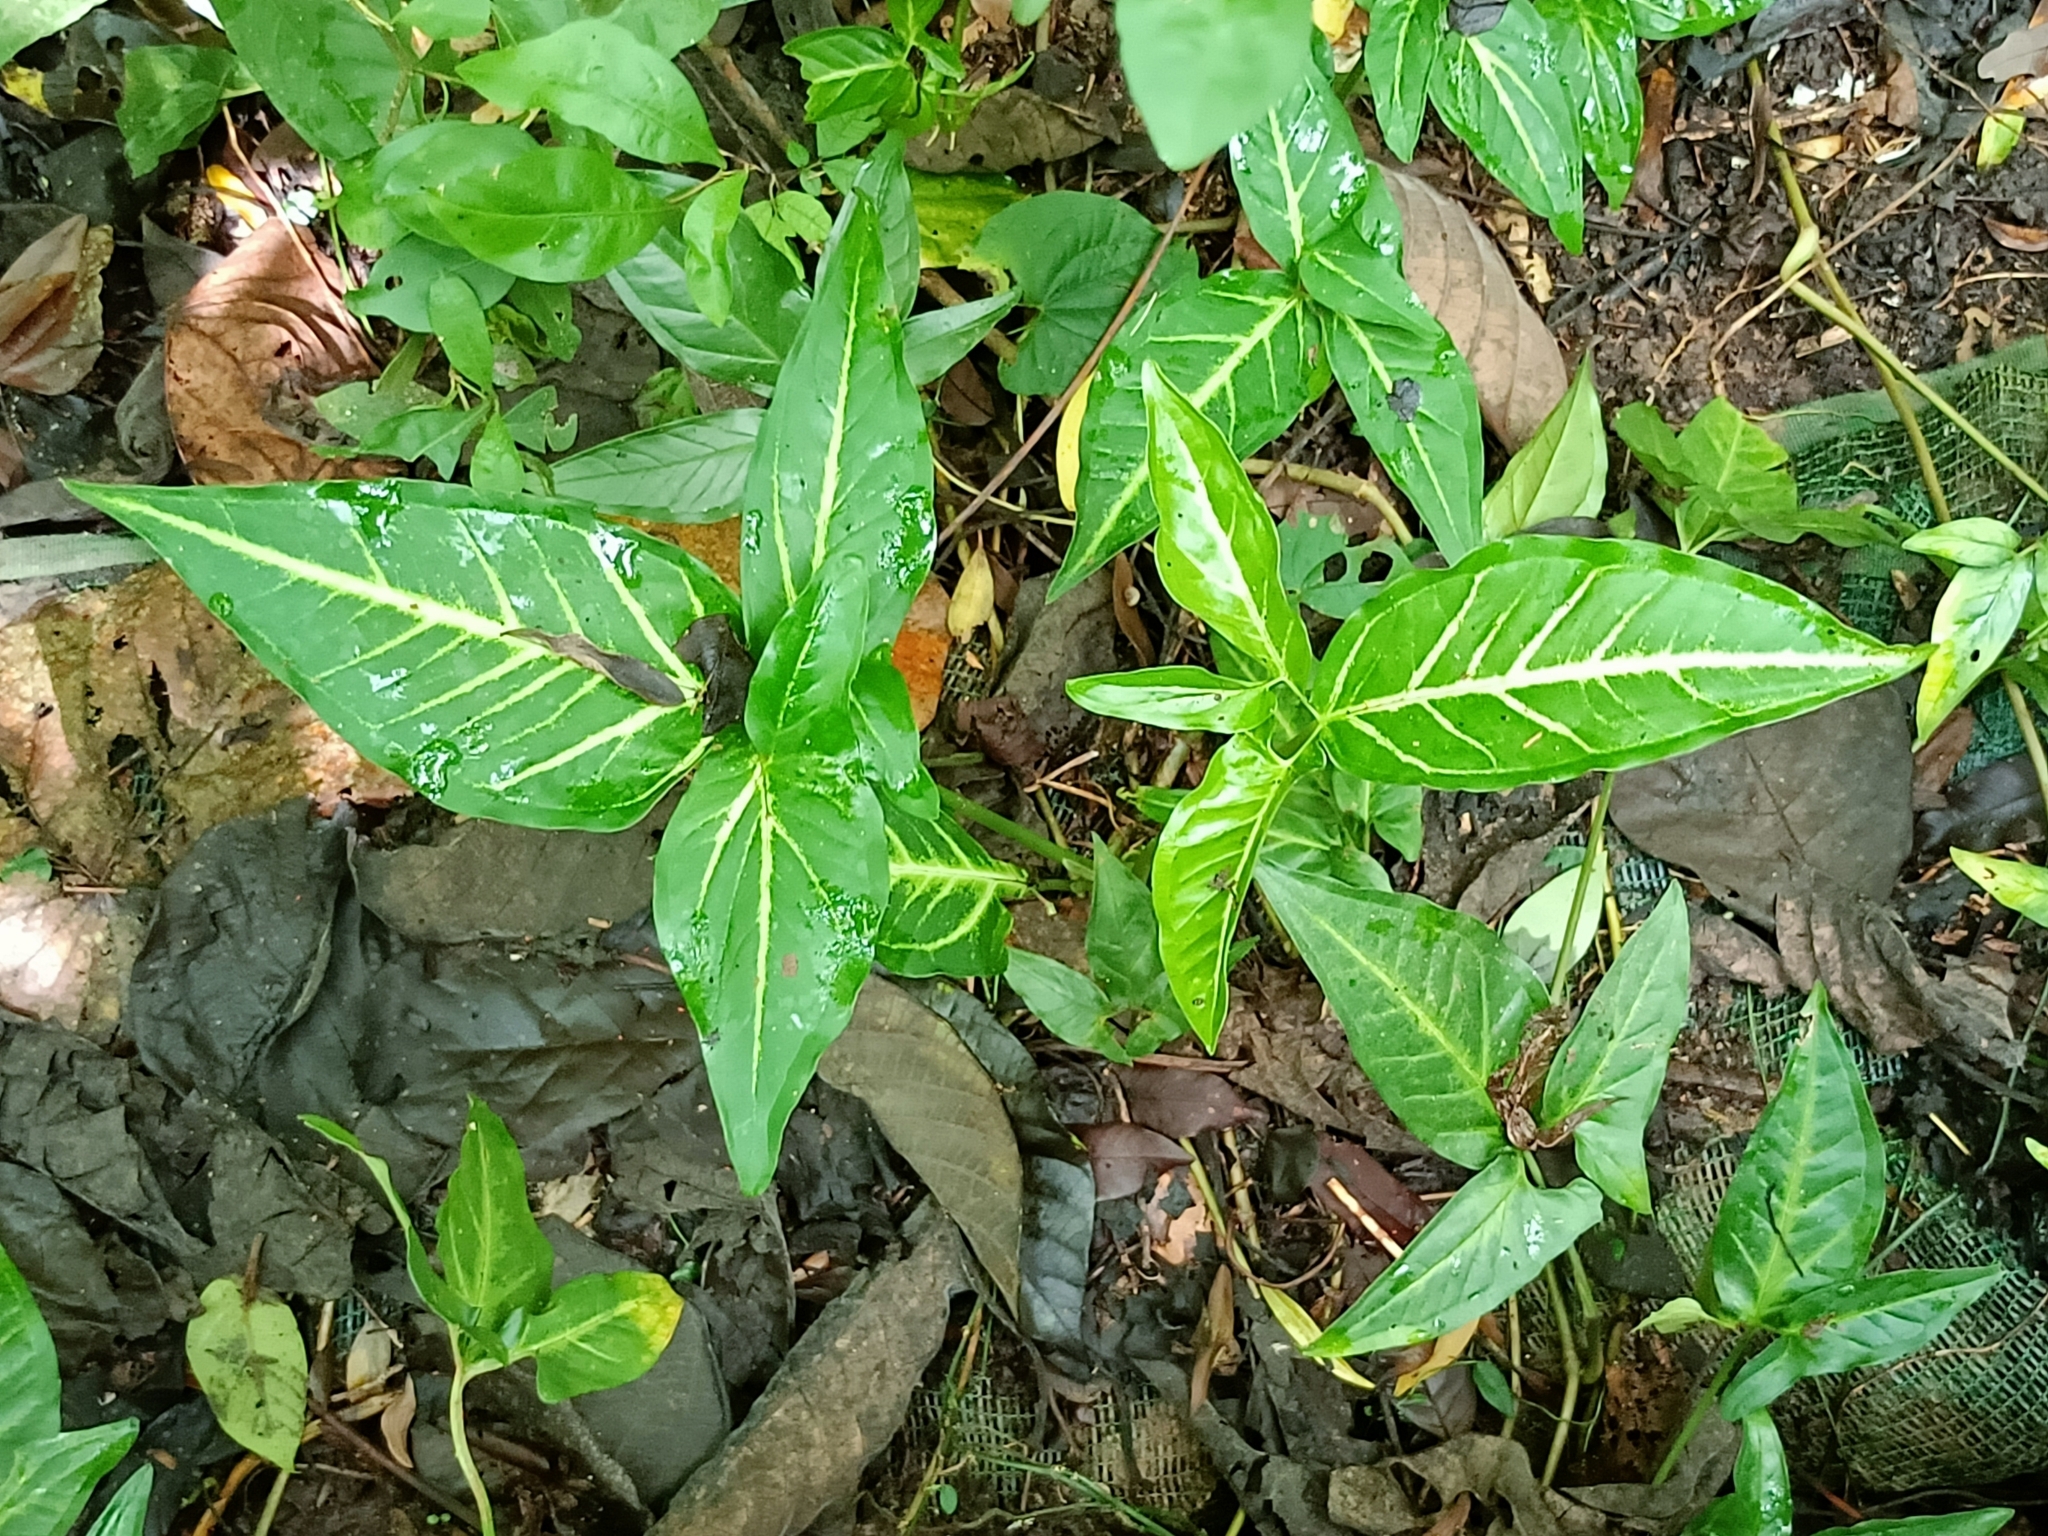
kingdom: Plantae
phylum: Tracheophyta
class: Liliopsida
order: Alismatales
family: Araceae
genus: Syngonium
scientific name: Syngonium angustatum
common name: Fivefingers
